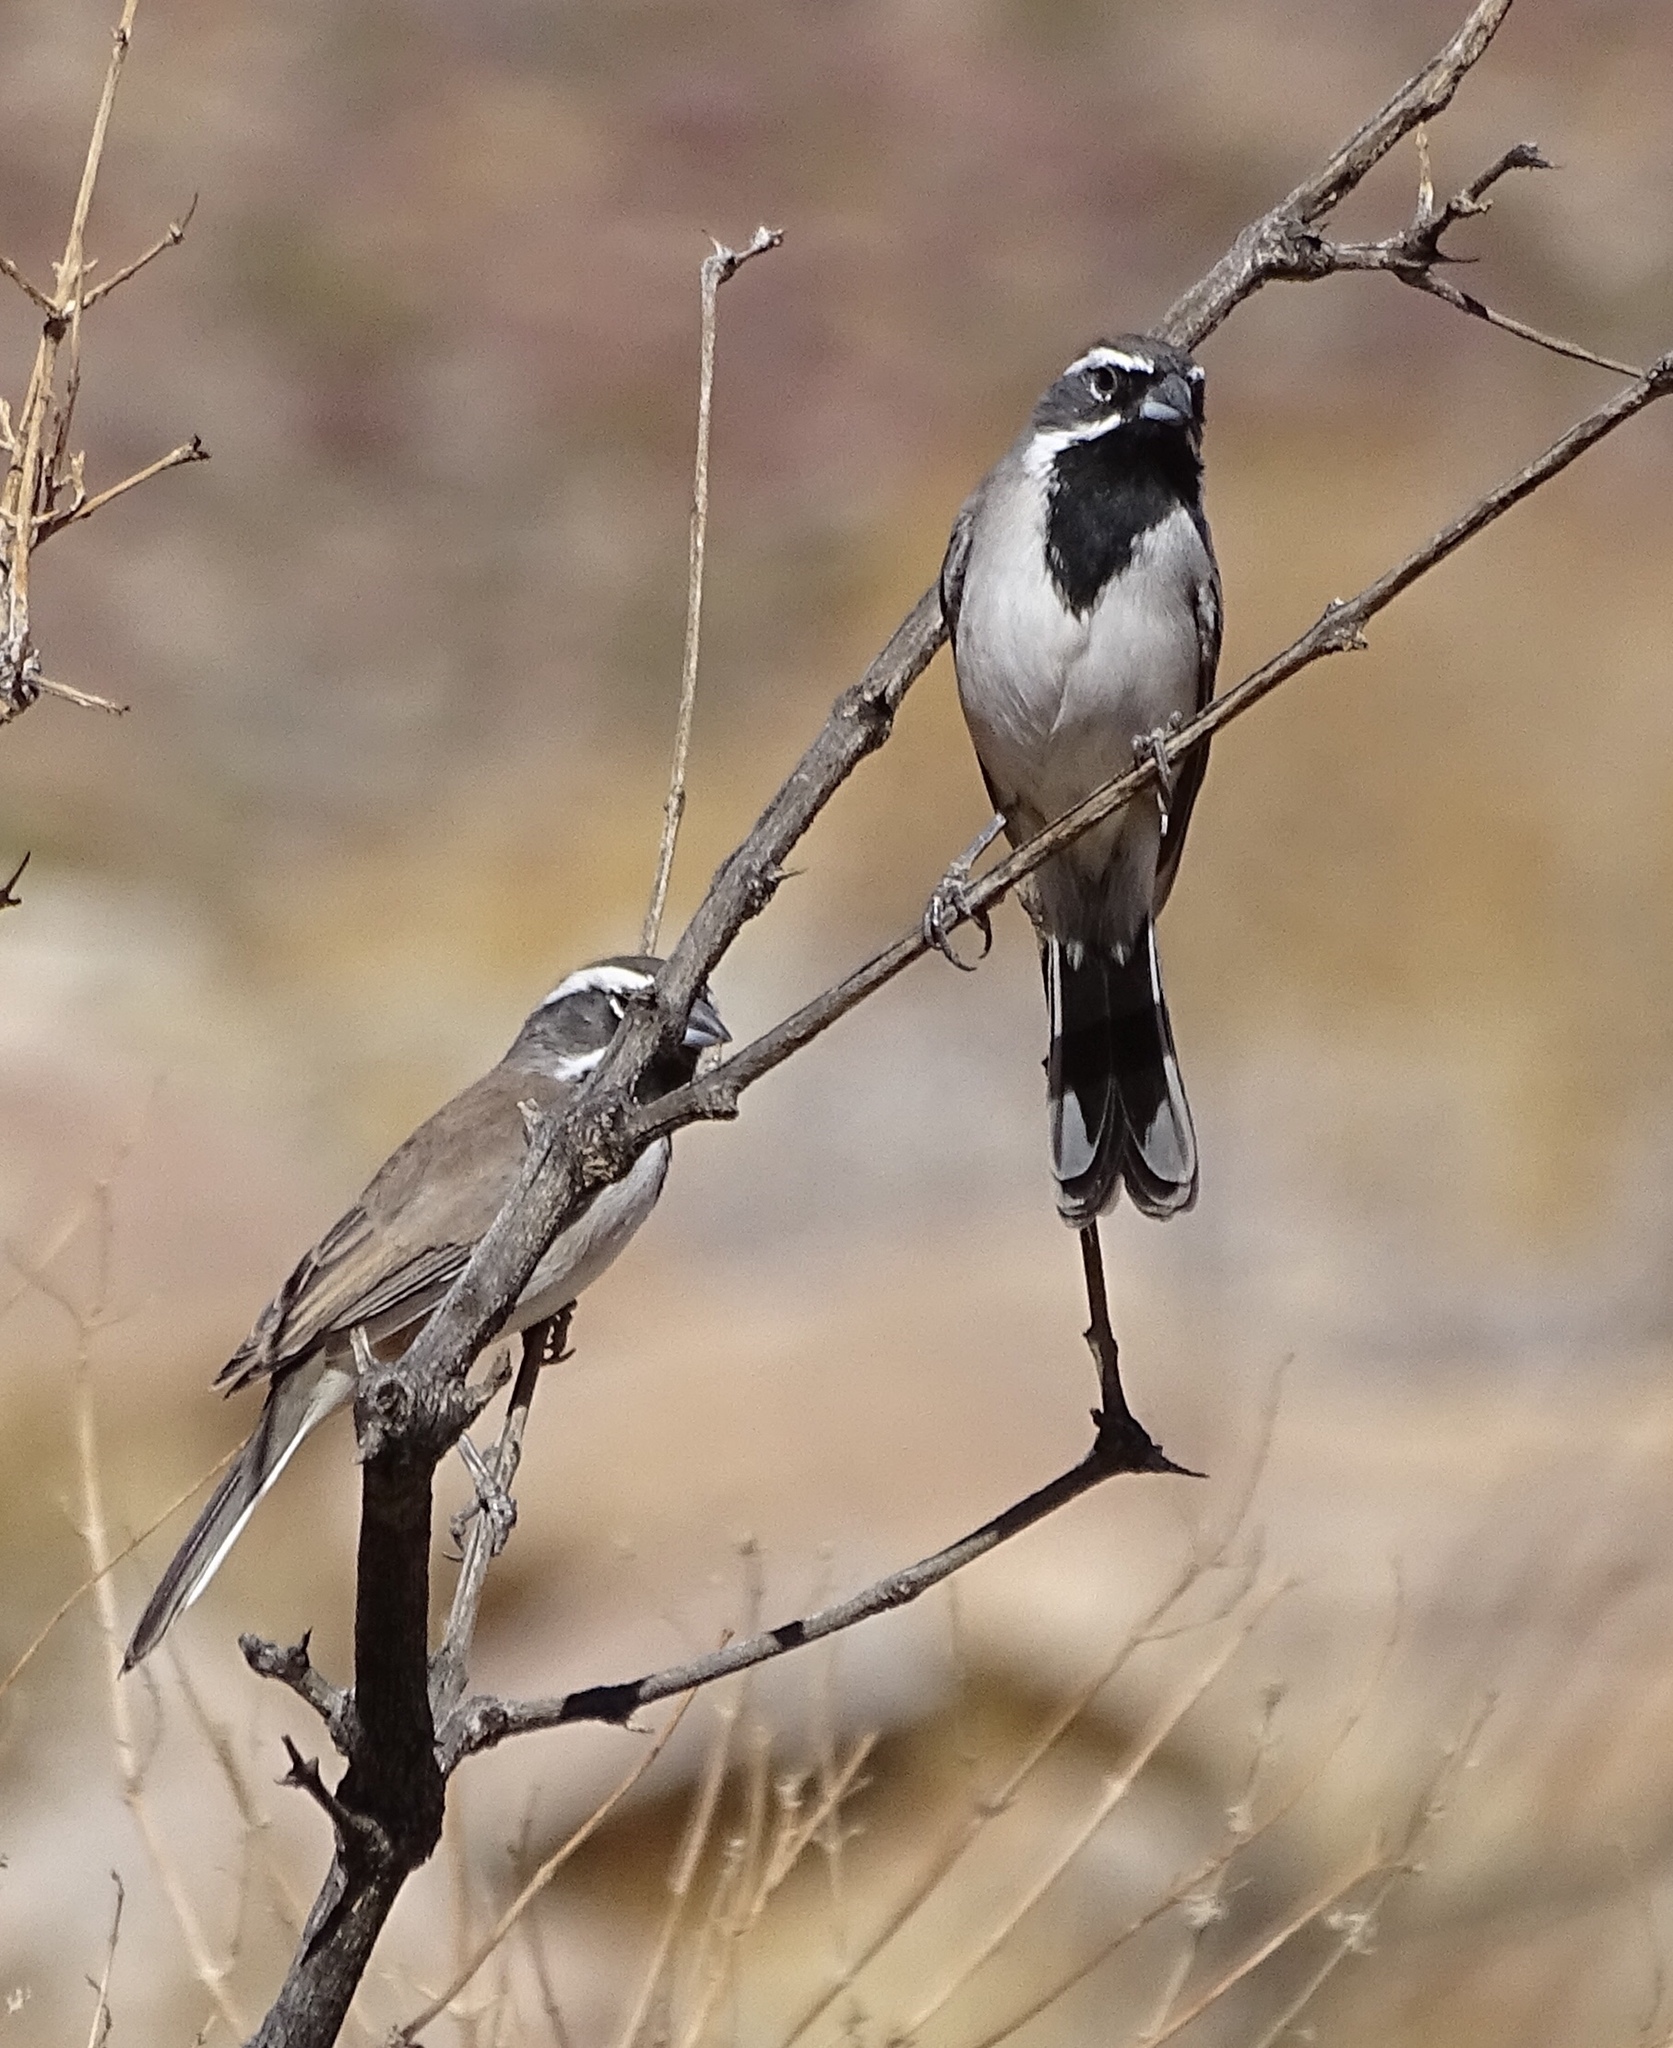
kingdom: Animalia
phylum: Chordata
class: Aves
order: Passeriformes
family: Passerellidae
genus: Amphispiza
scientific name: Amphispiza bilineata
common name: Black-throated sparrow
